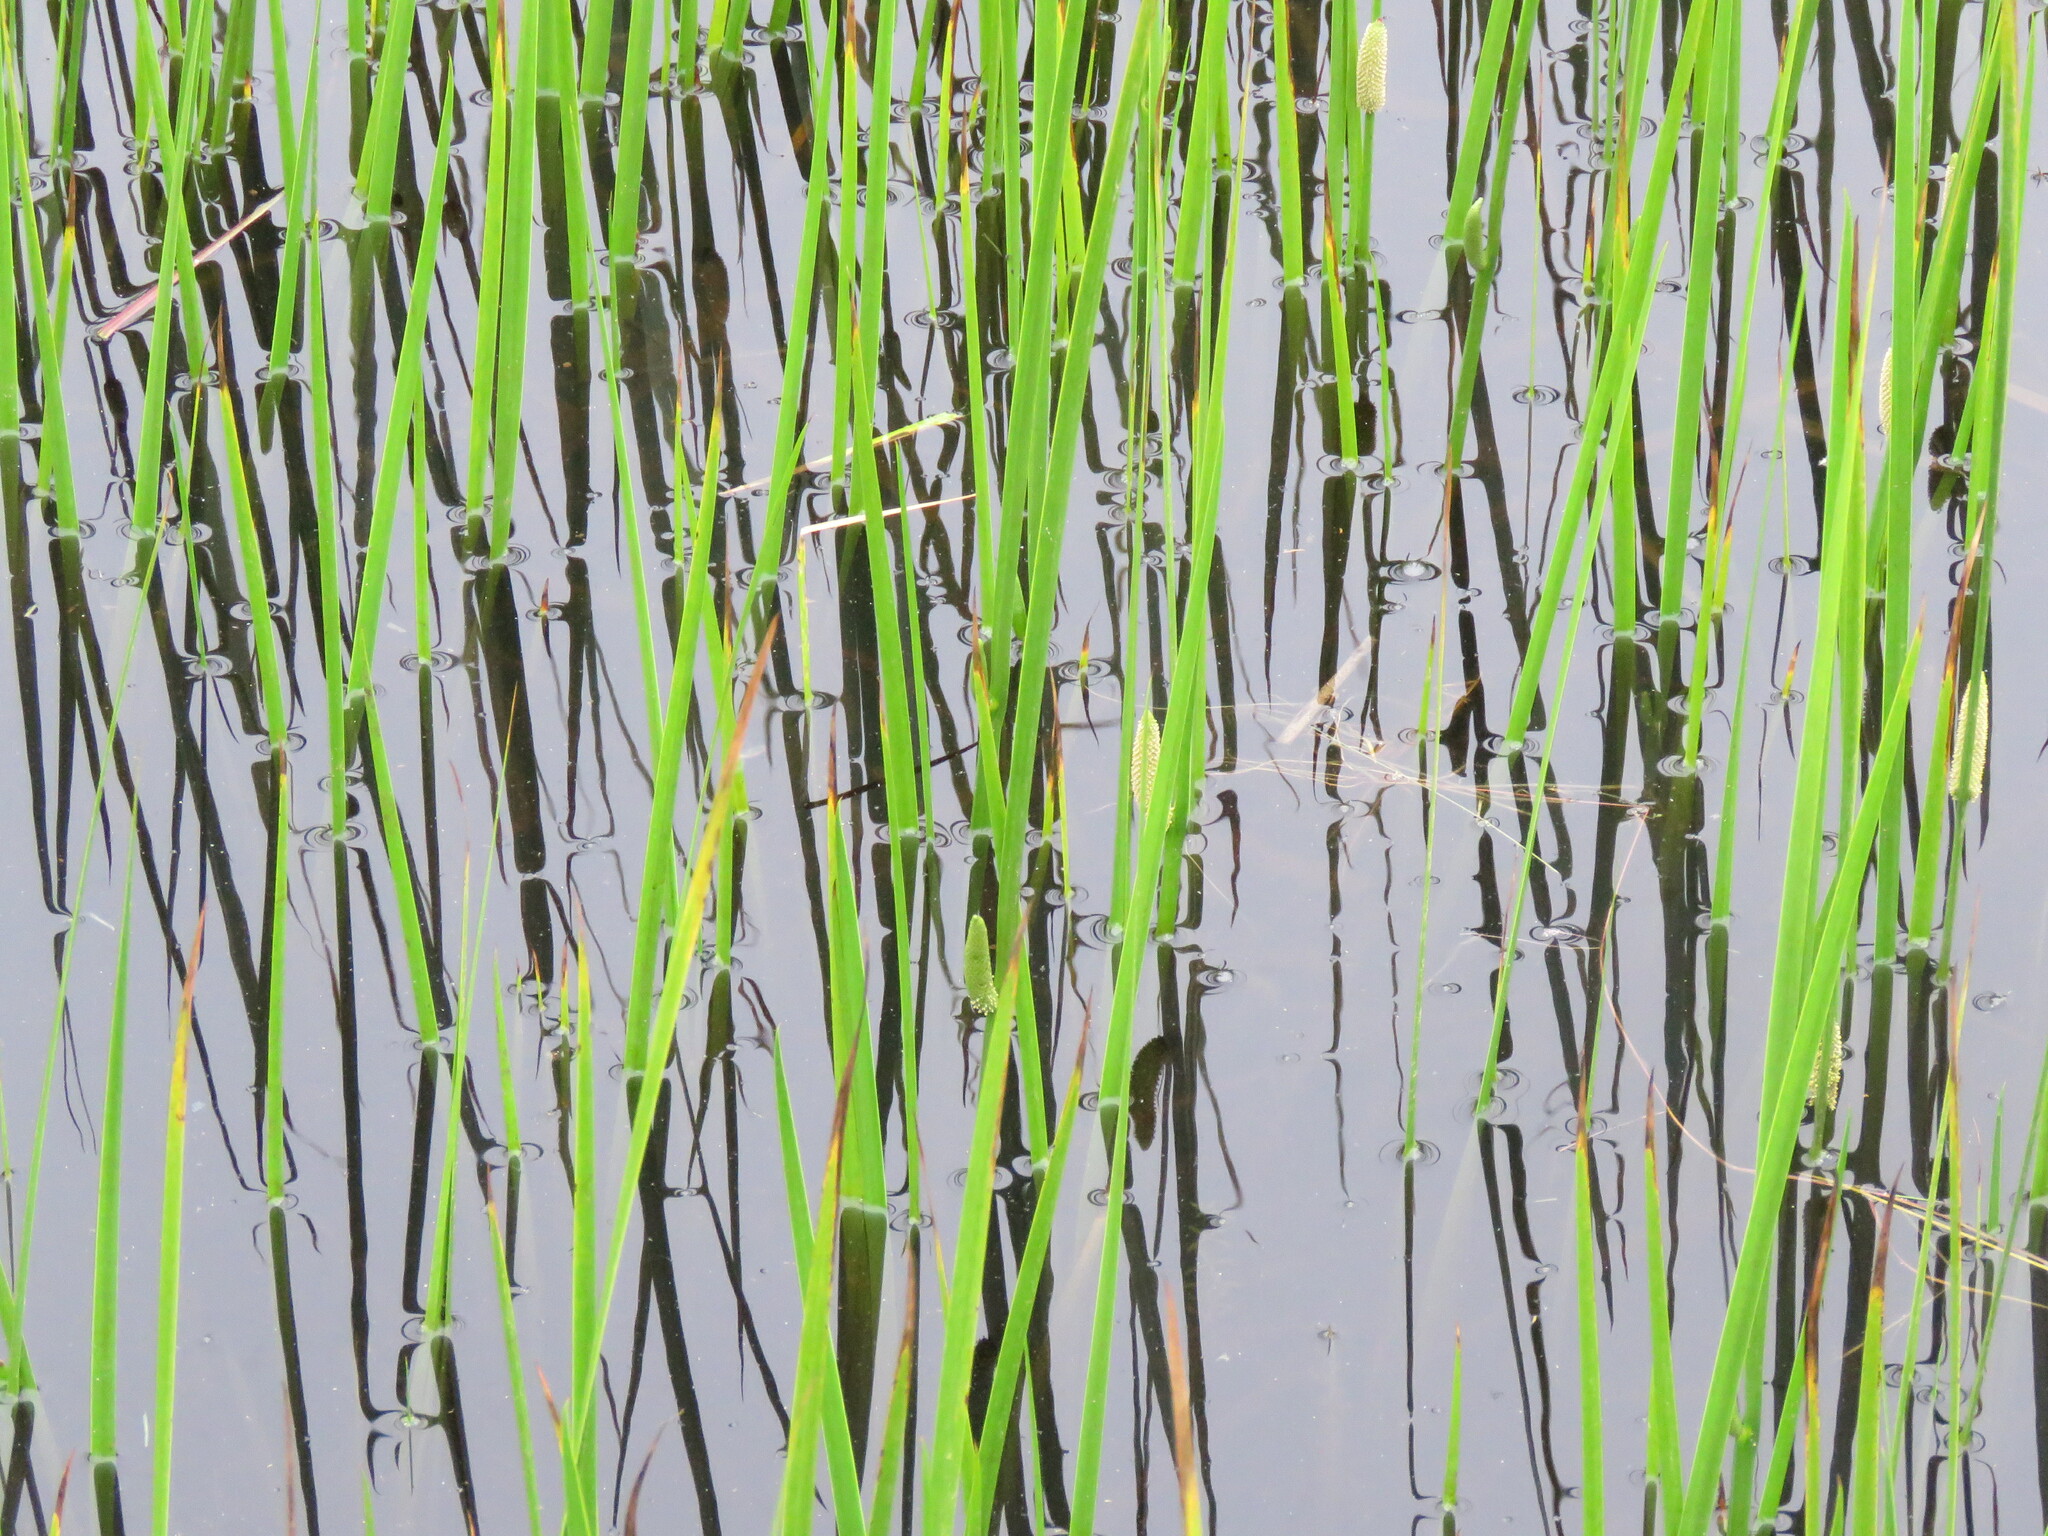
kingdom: Plantae
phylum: Tracheophyta
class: Liliopsida
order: Acorales
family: Acoraceae
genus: Acorus
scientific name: Acorus calamus
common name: Sweet-flag
